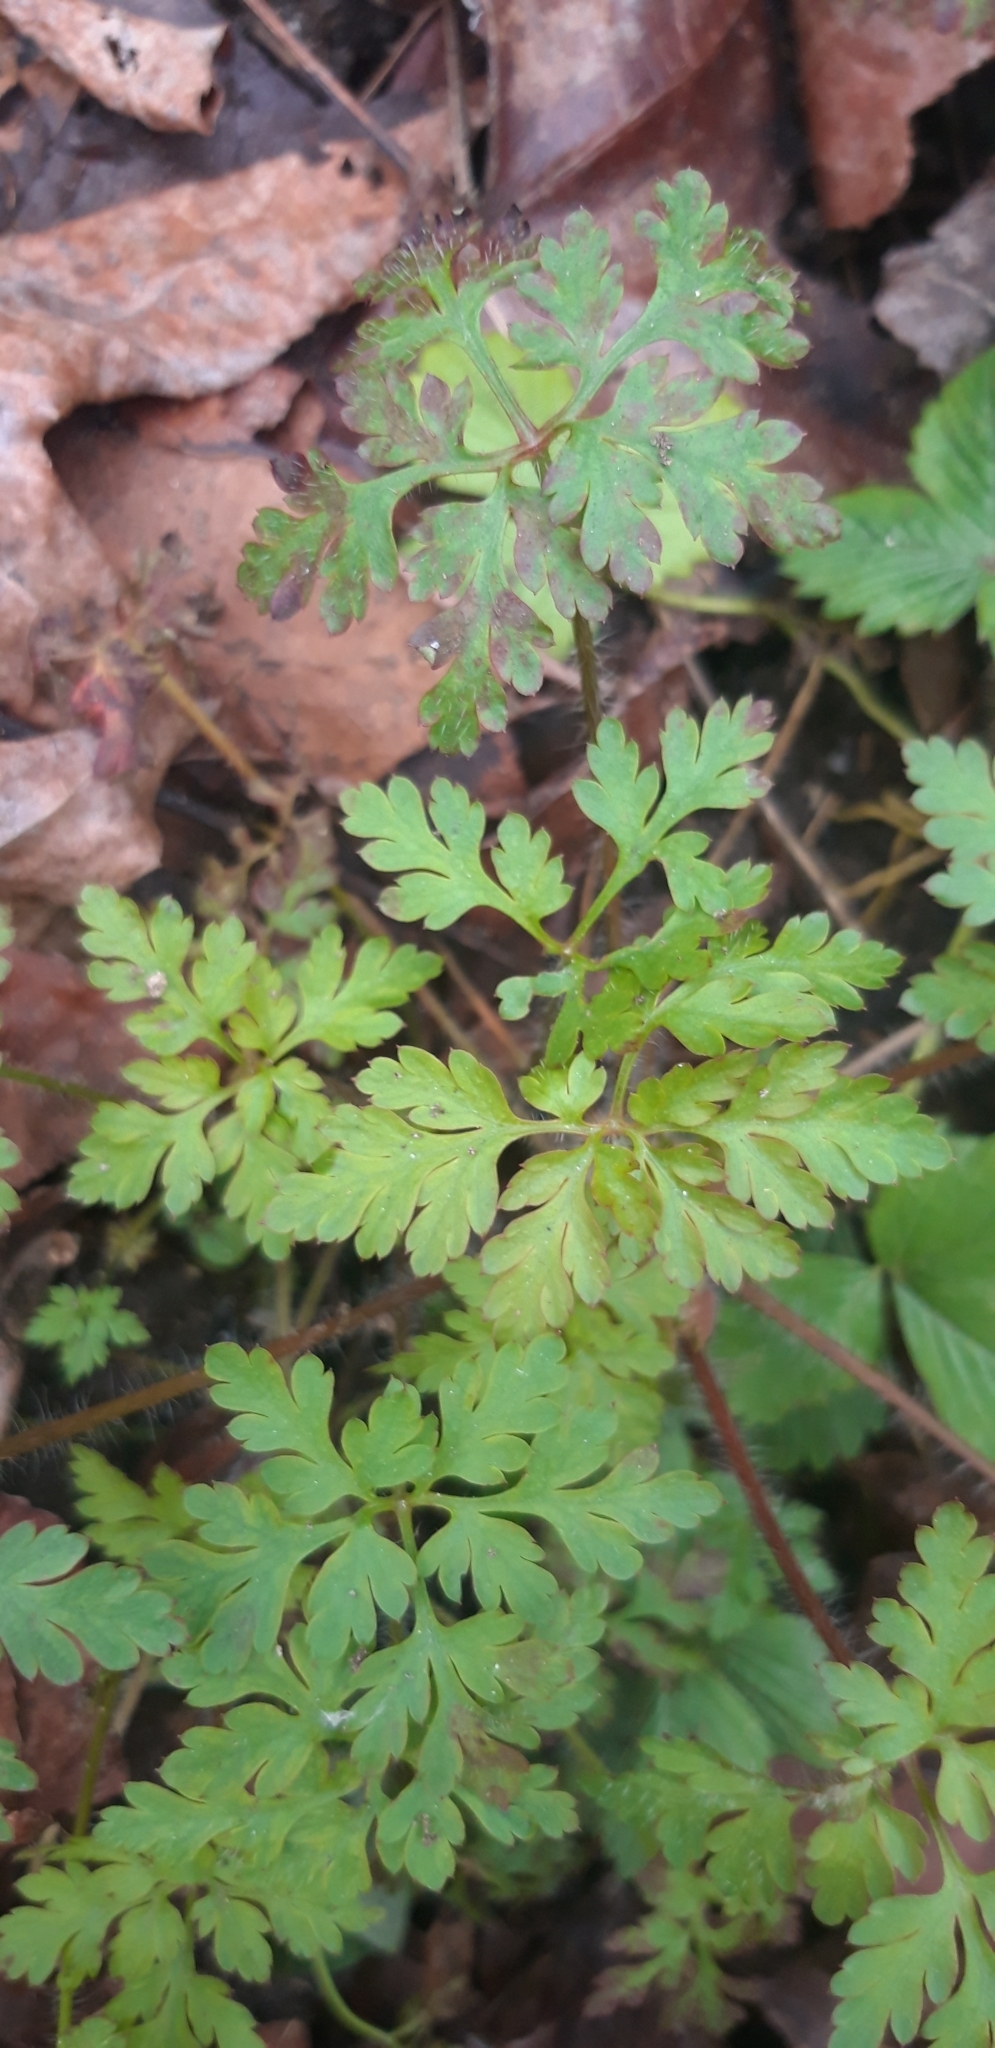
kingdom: Plantae
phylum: Tracheophyta
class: Magnoliopsida
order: Geraniales
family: Geraniaceae
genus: Geranium
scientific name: Geranium robertianum
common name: Herb-robert
